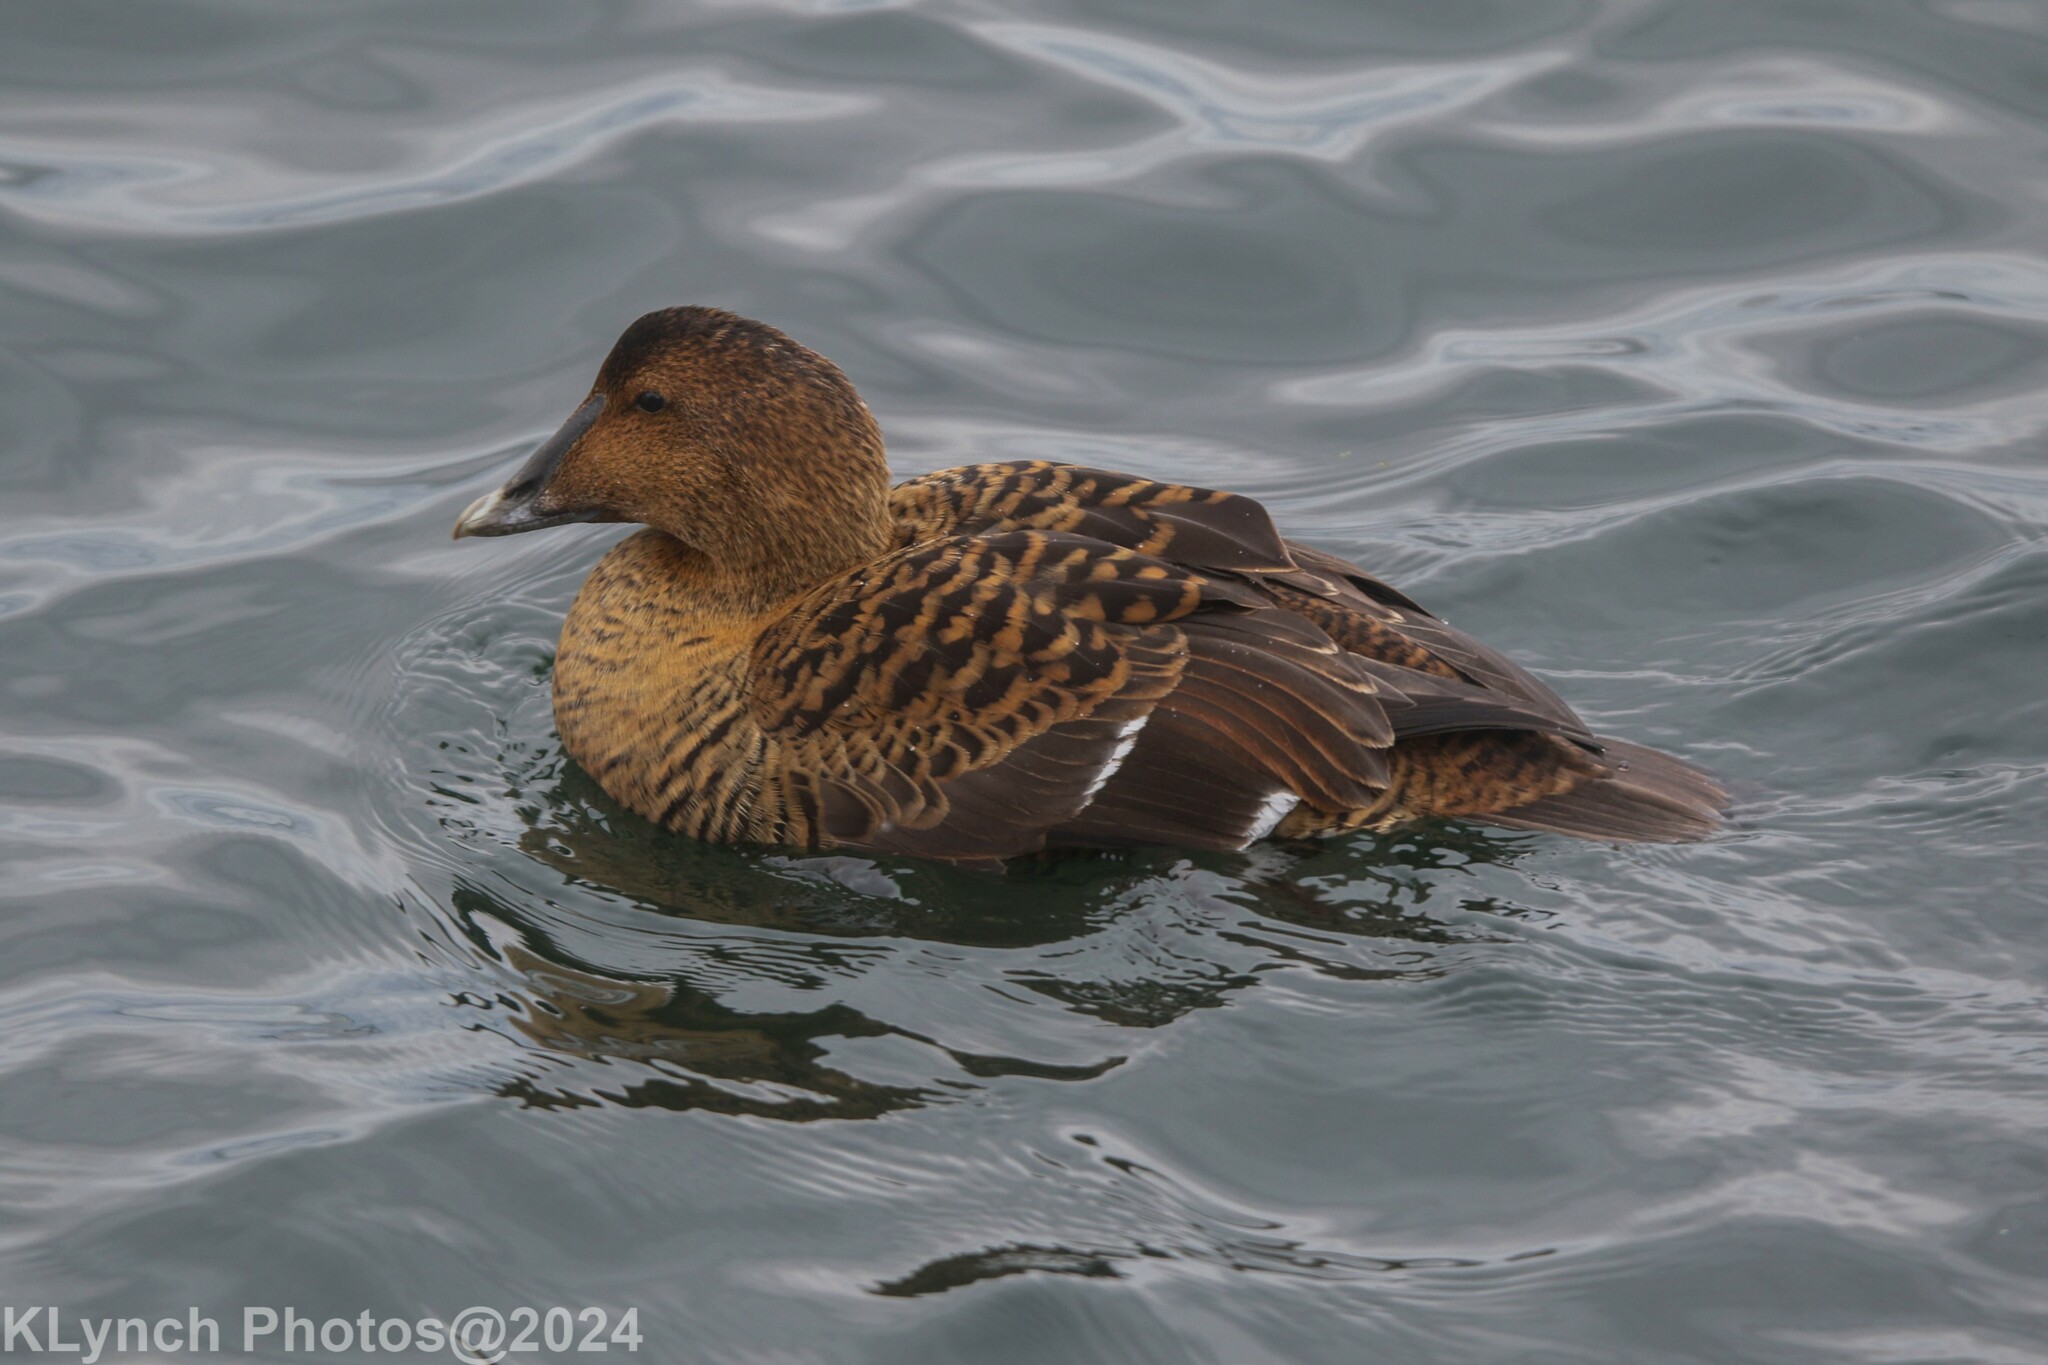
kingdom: Animalia
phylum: Chordata
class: Aves
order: Anseriformes
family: Anatidae
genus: Somateria
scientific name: Somateria mollissima
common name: Common eider
